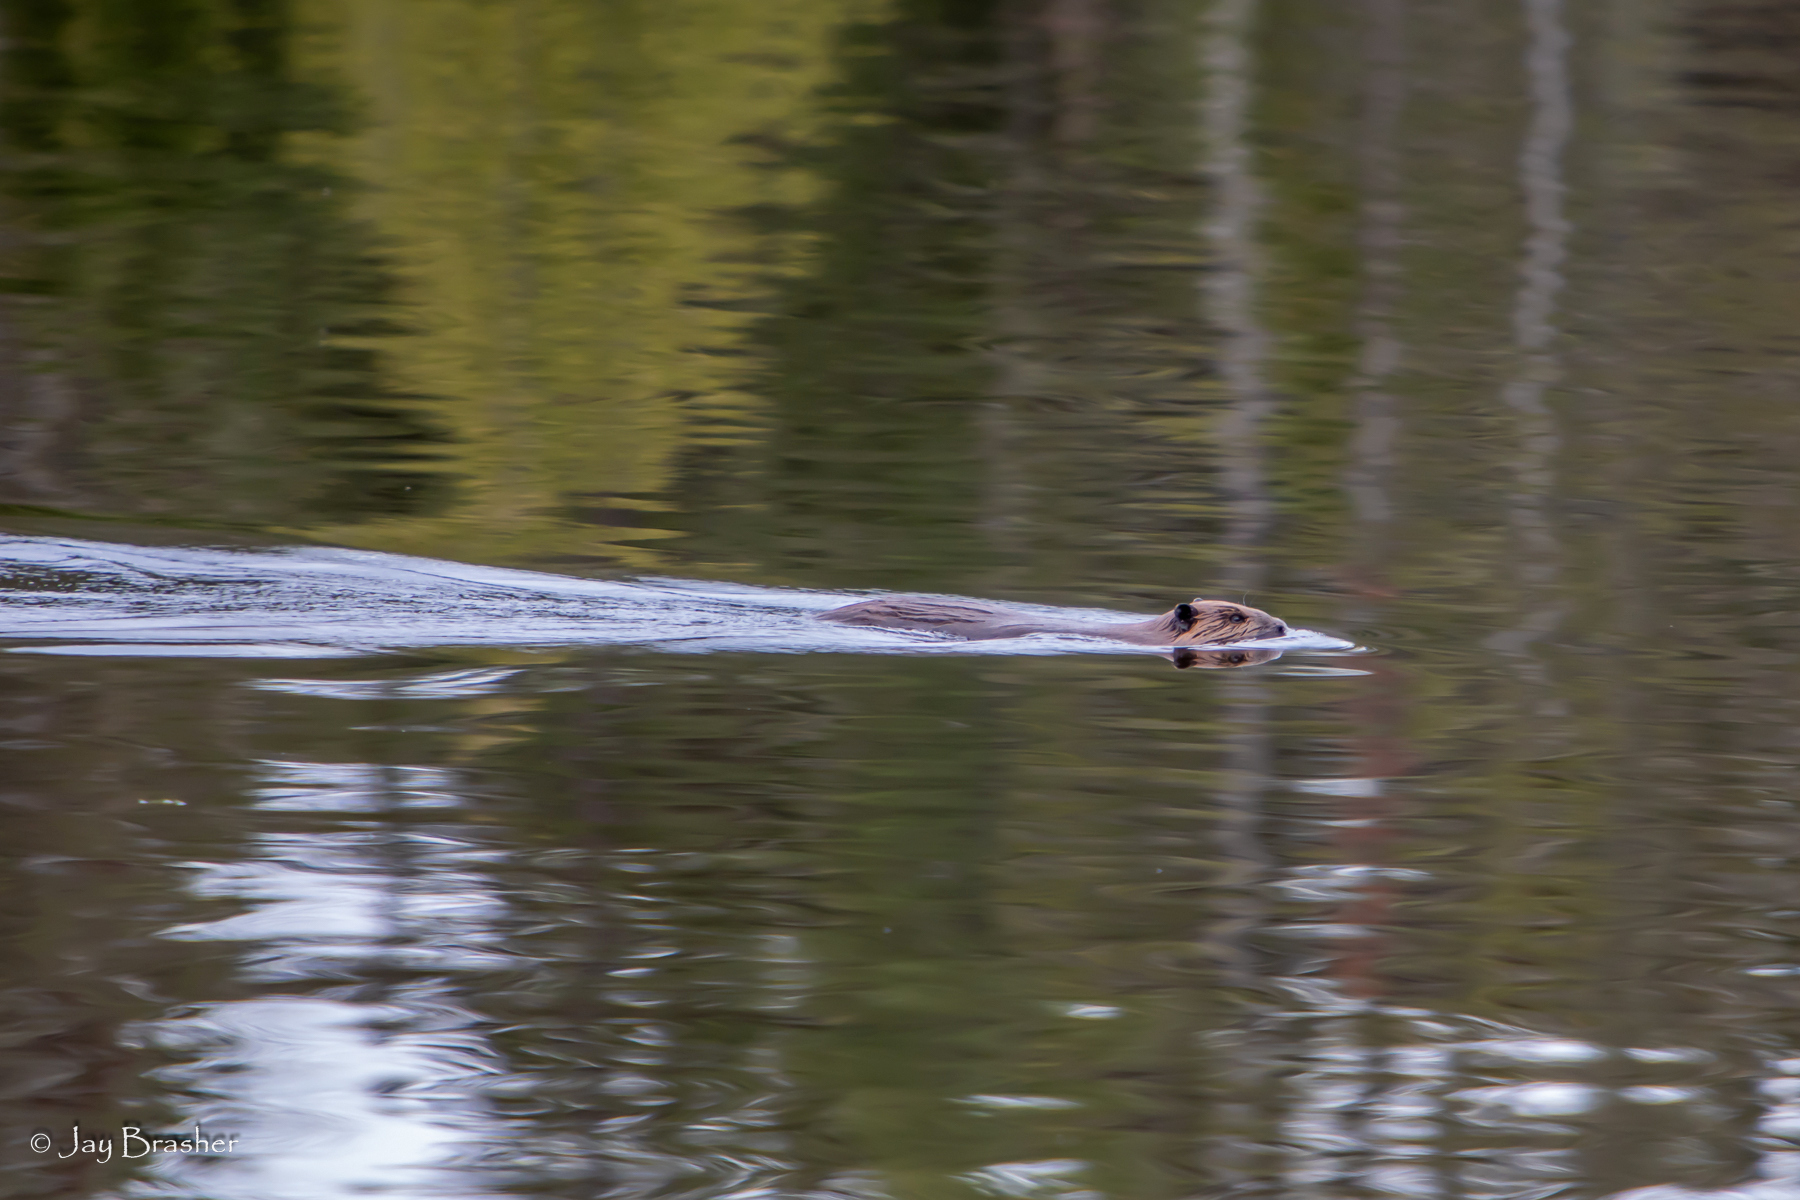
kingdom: Animalia
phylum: Chordata
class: Mammalia
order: Rodentia
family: Castoridae
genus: Castor
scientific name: Castor canadensis
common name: American beaver
